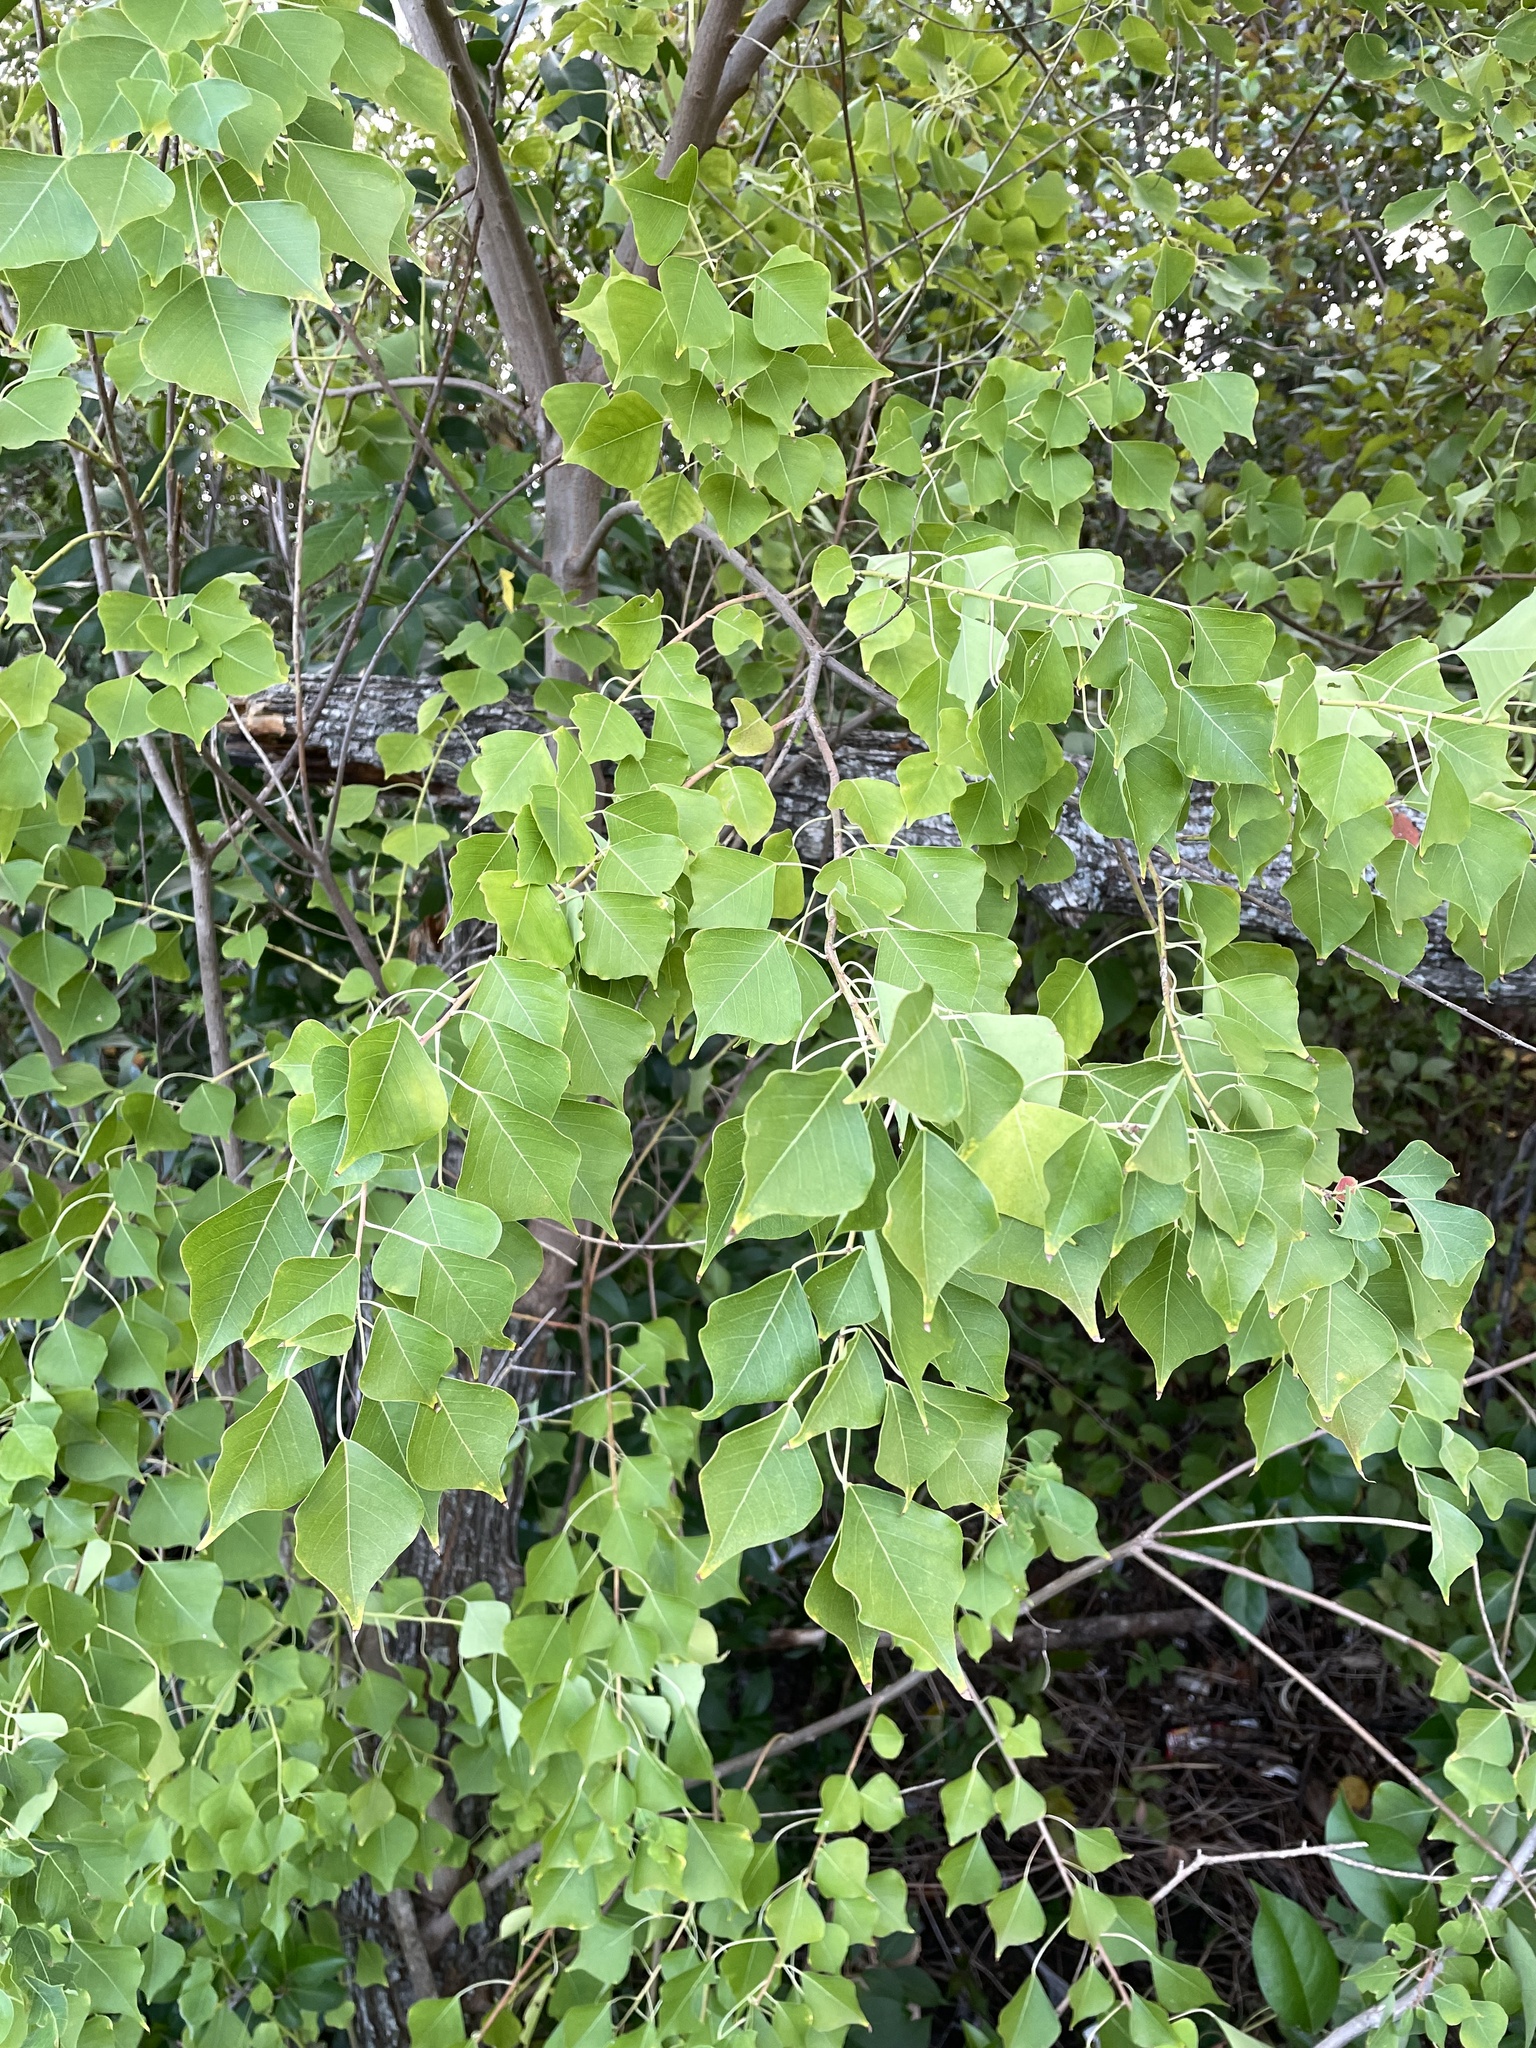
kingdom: Plantae
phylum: Tracheophyta
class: Magnoliopsida
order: Malpighiales
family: Euphorbiaceae
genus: Triadica
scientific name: Triadica sebifera
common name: Chinese tallow
